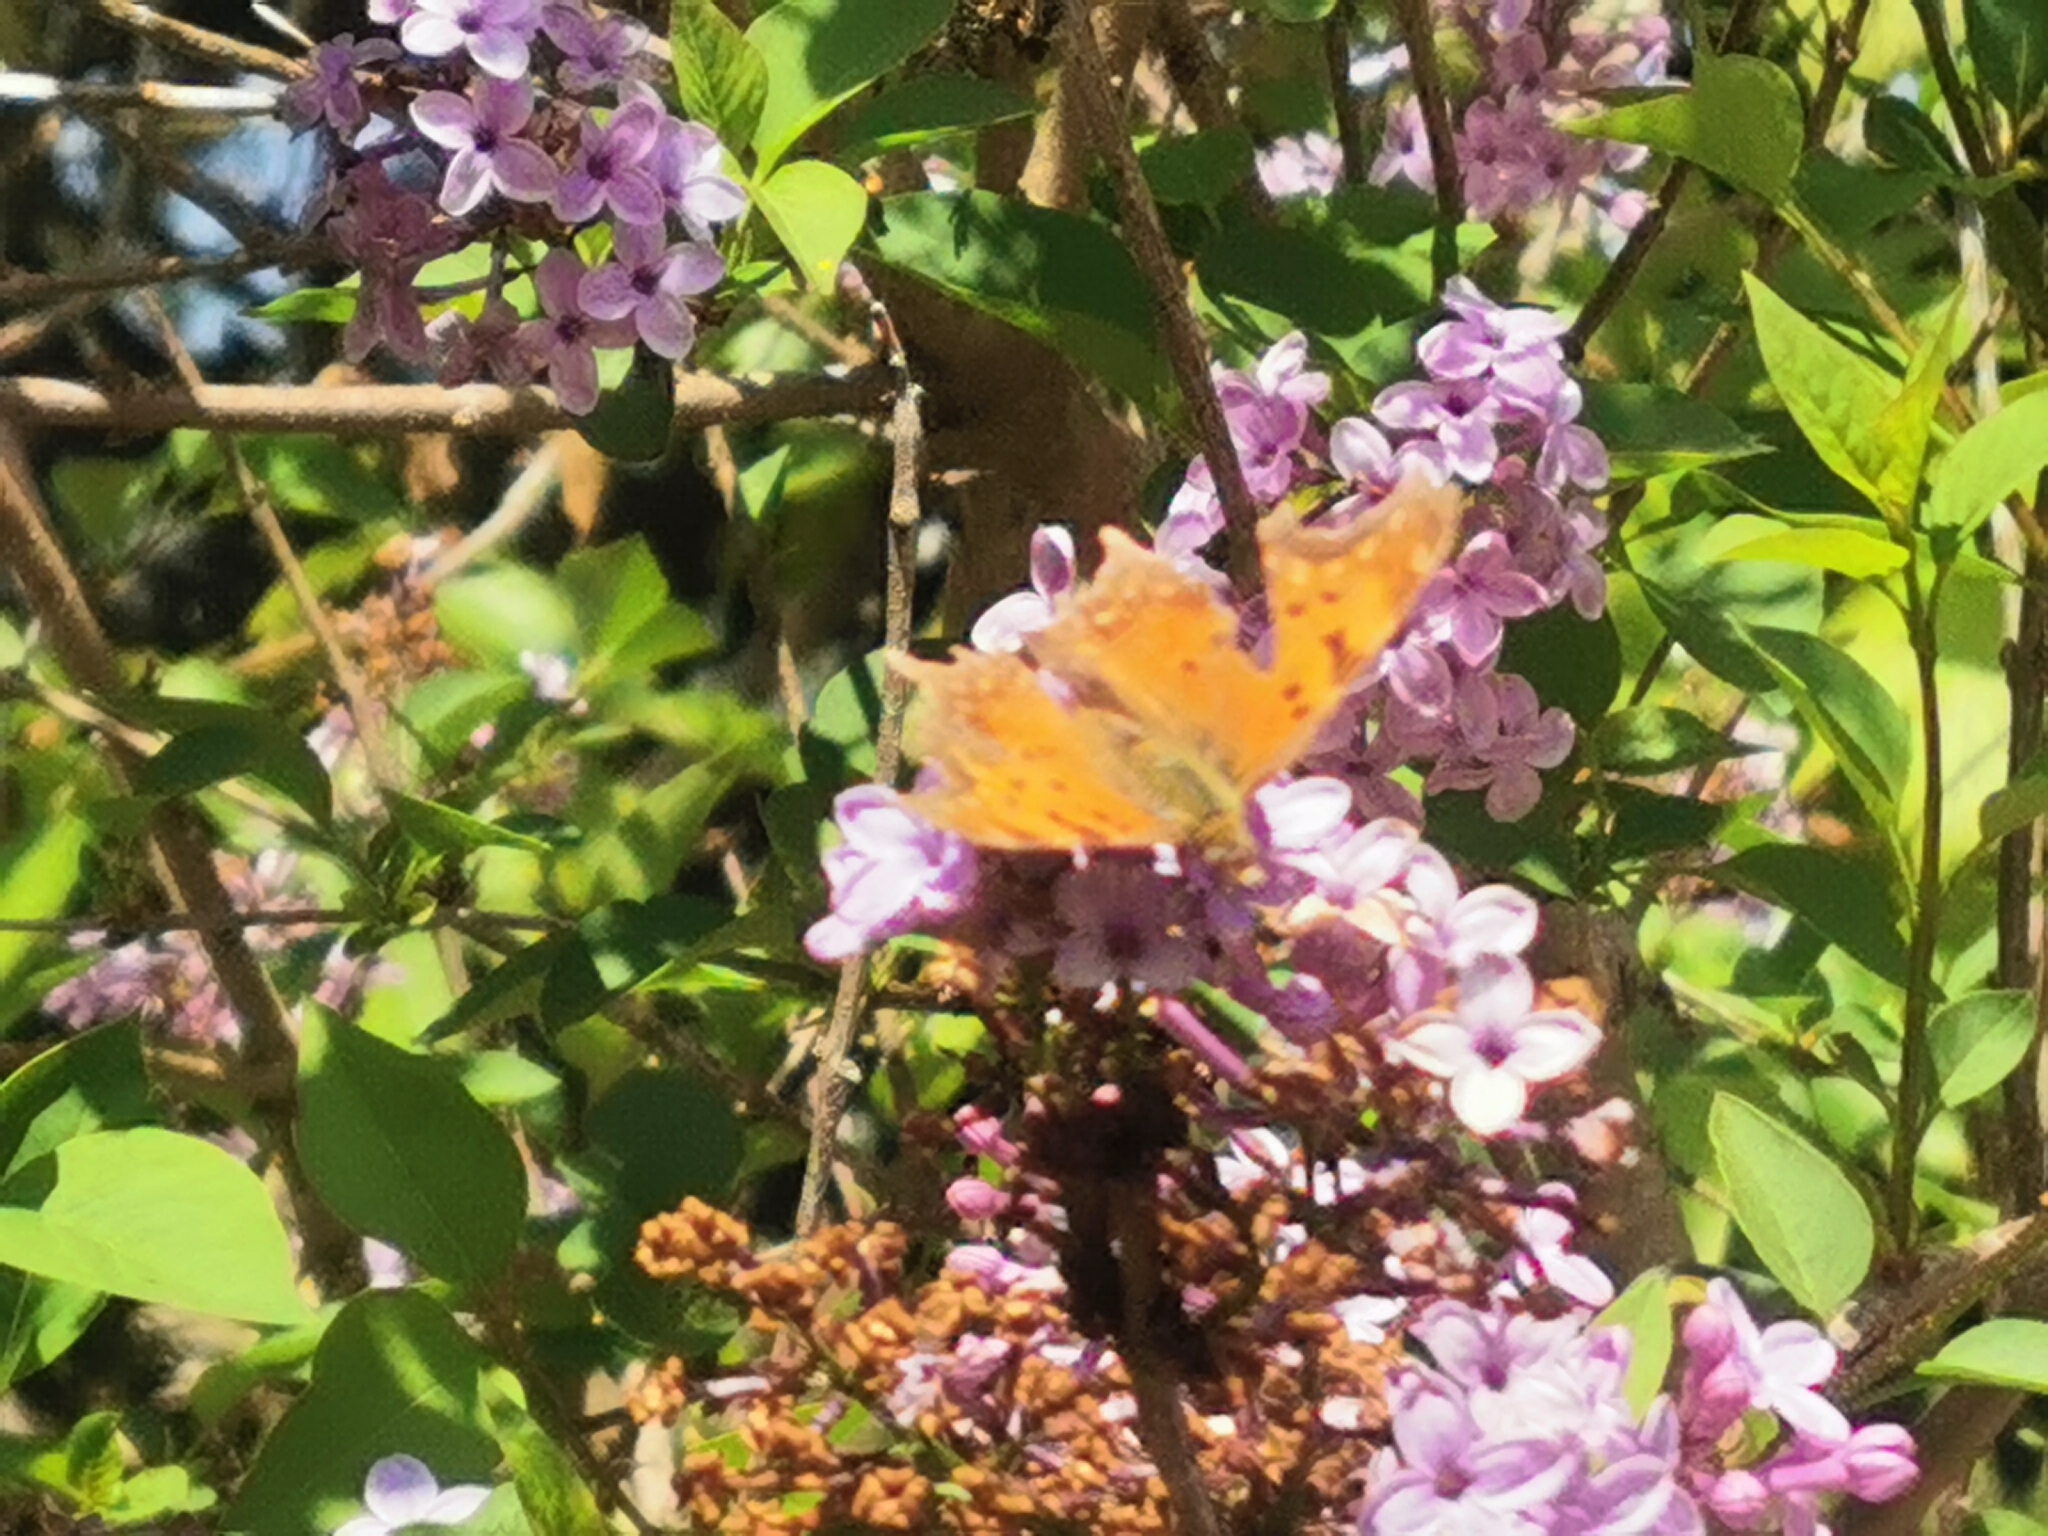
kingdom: Animalia
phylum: Arthropoda
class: Insecta
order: Lepidoptera
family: Nymphalidae
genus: Polygonia
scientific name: Polygonia egea
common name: Southern comma
